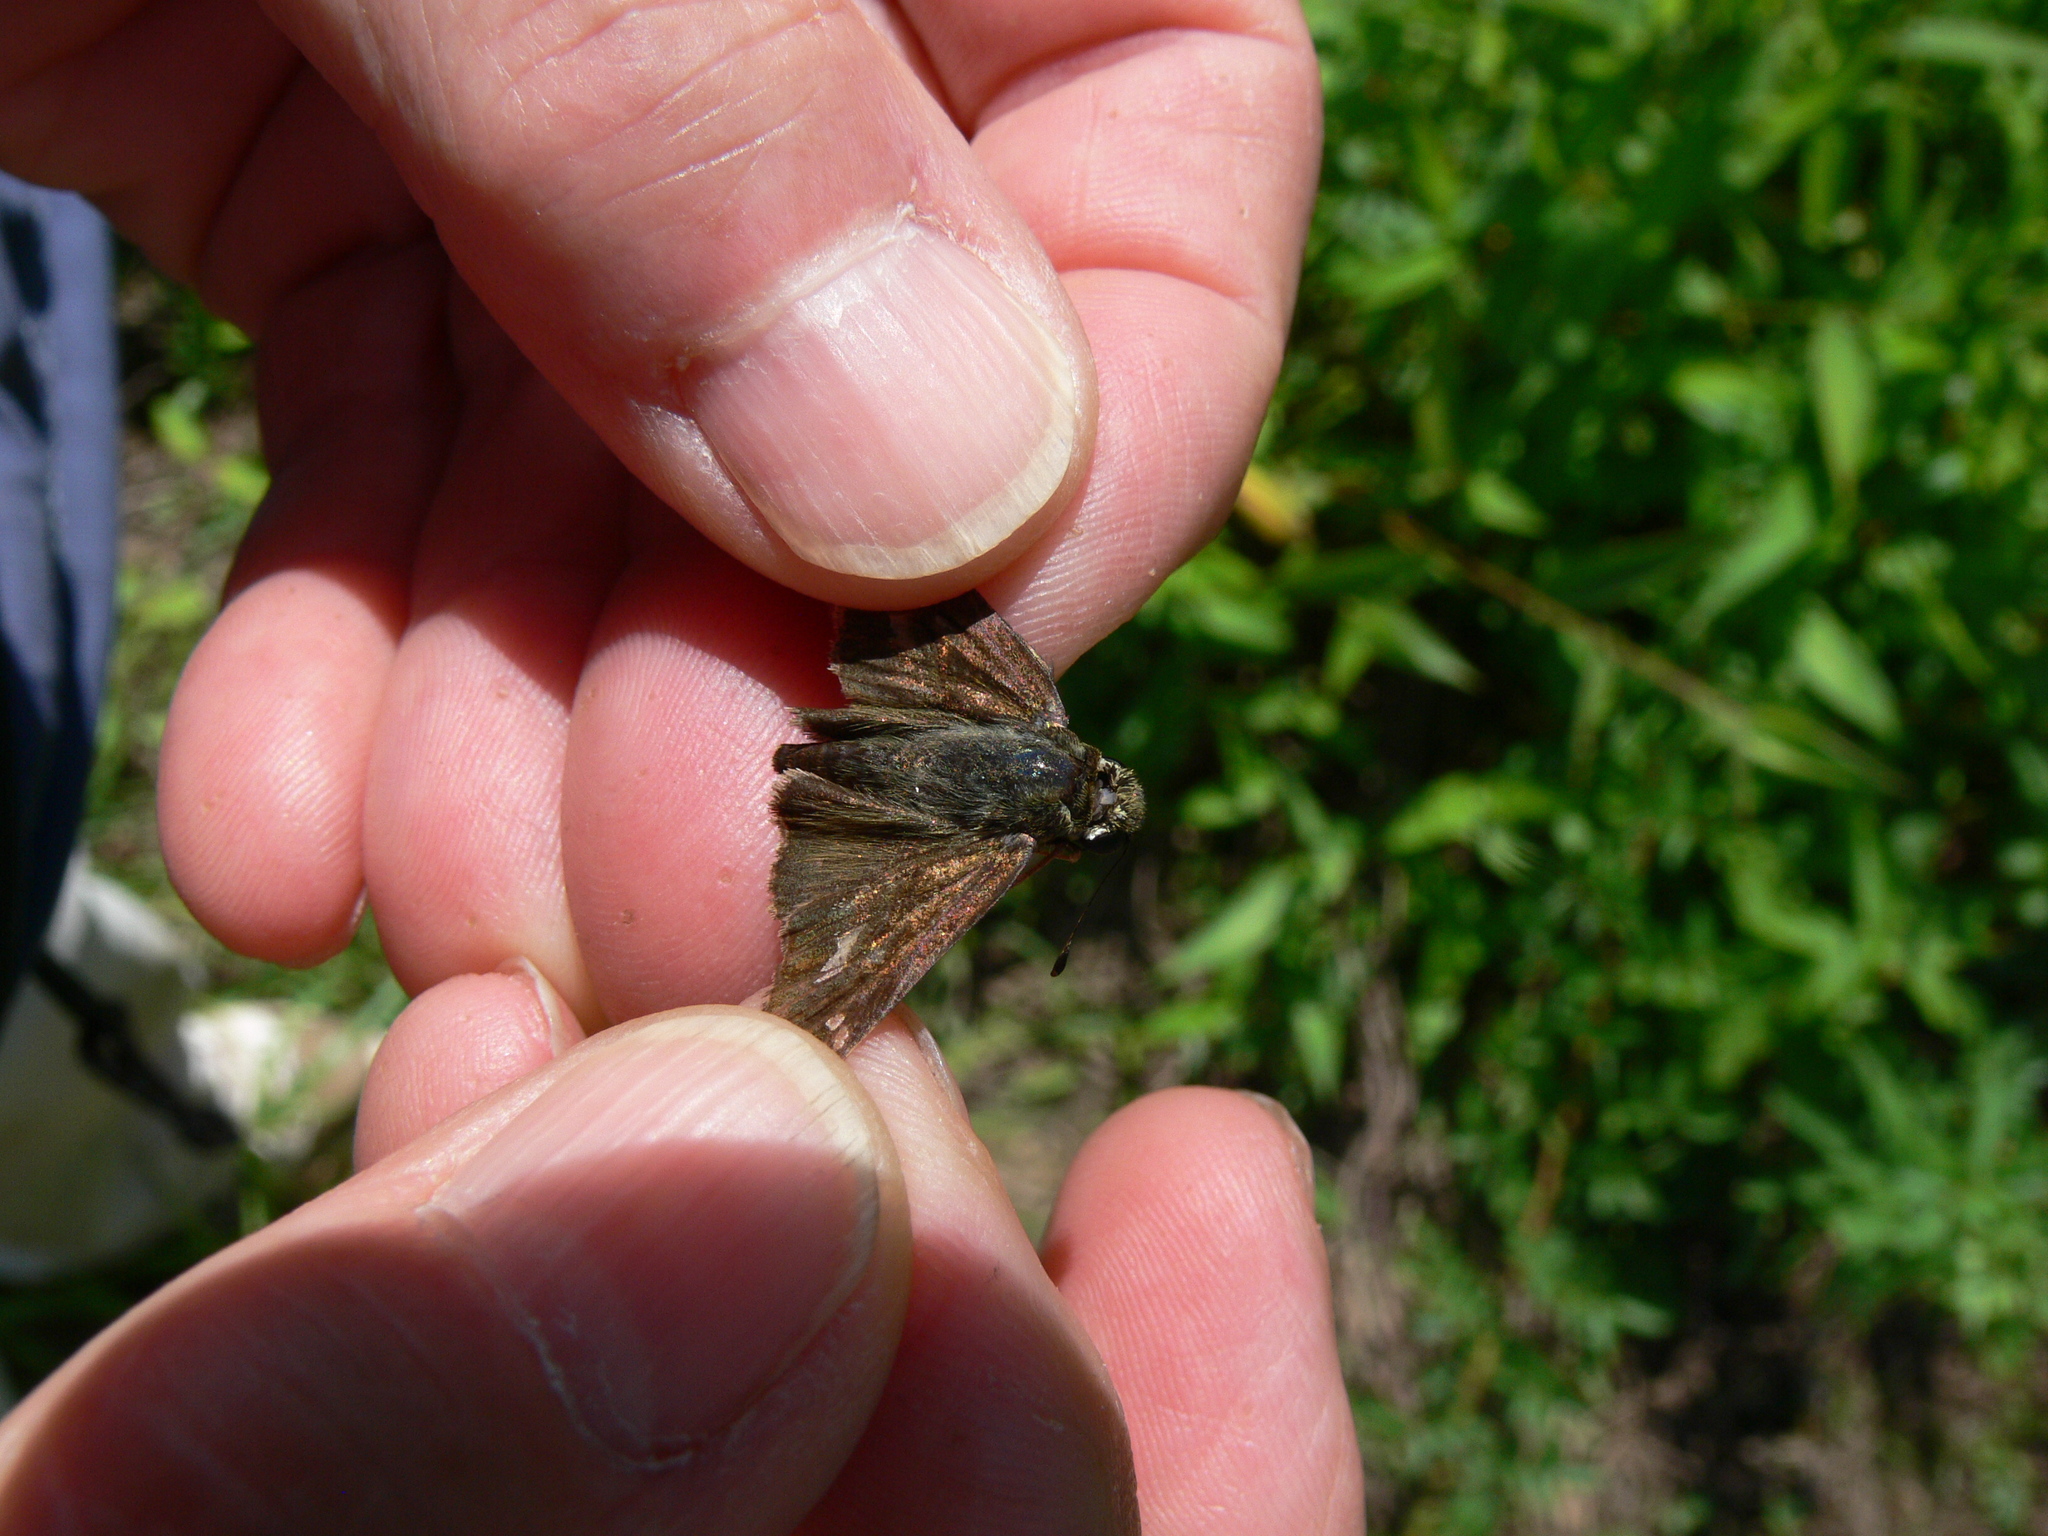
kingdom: Animalia
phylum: Arthropoda
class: Insecta
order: Lepidoptera
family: Hesperiidae
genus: Vernia
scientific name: Vernia verna
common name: Little glassywing
